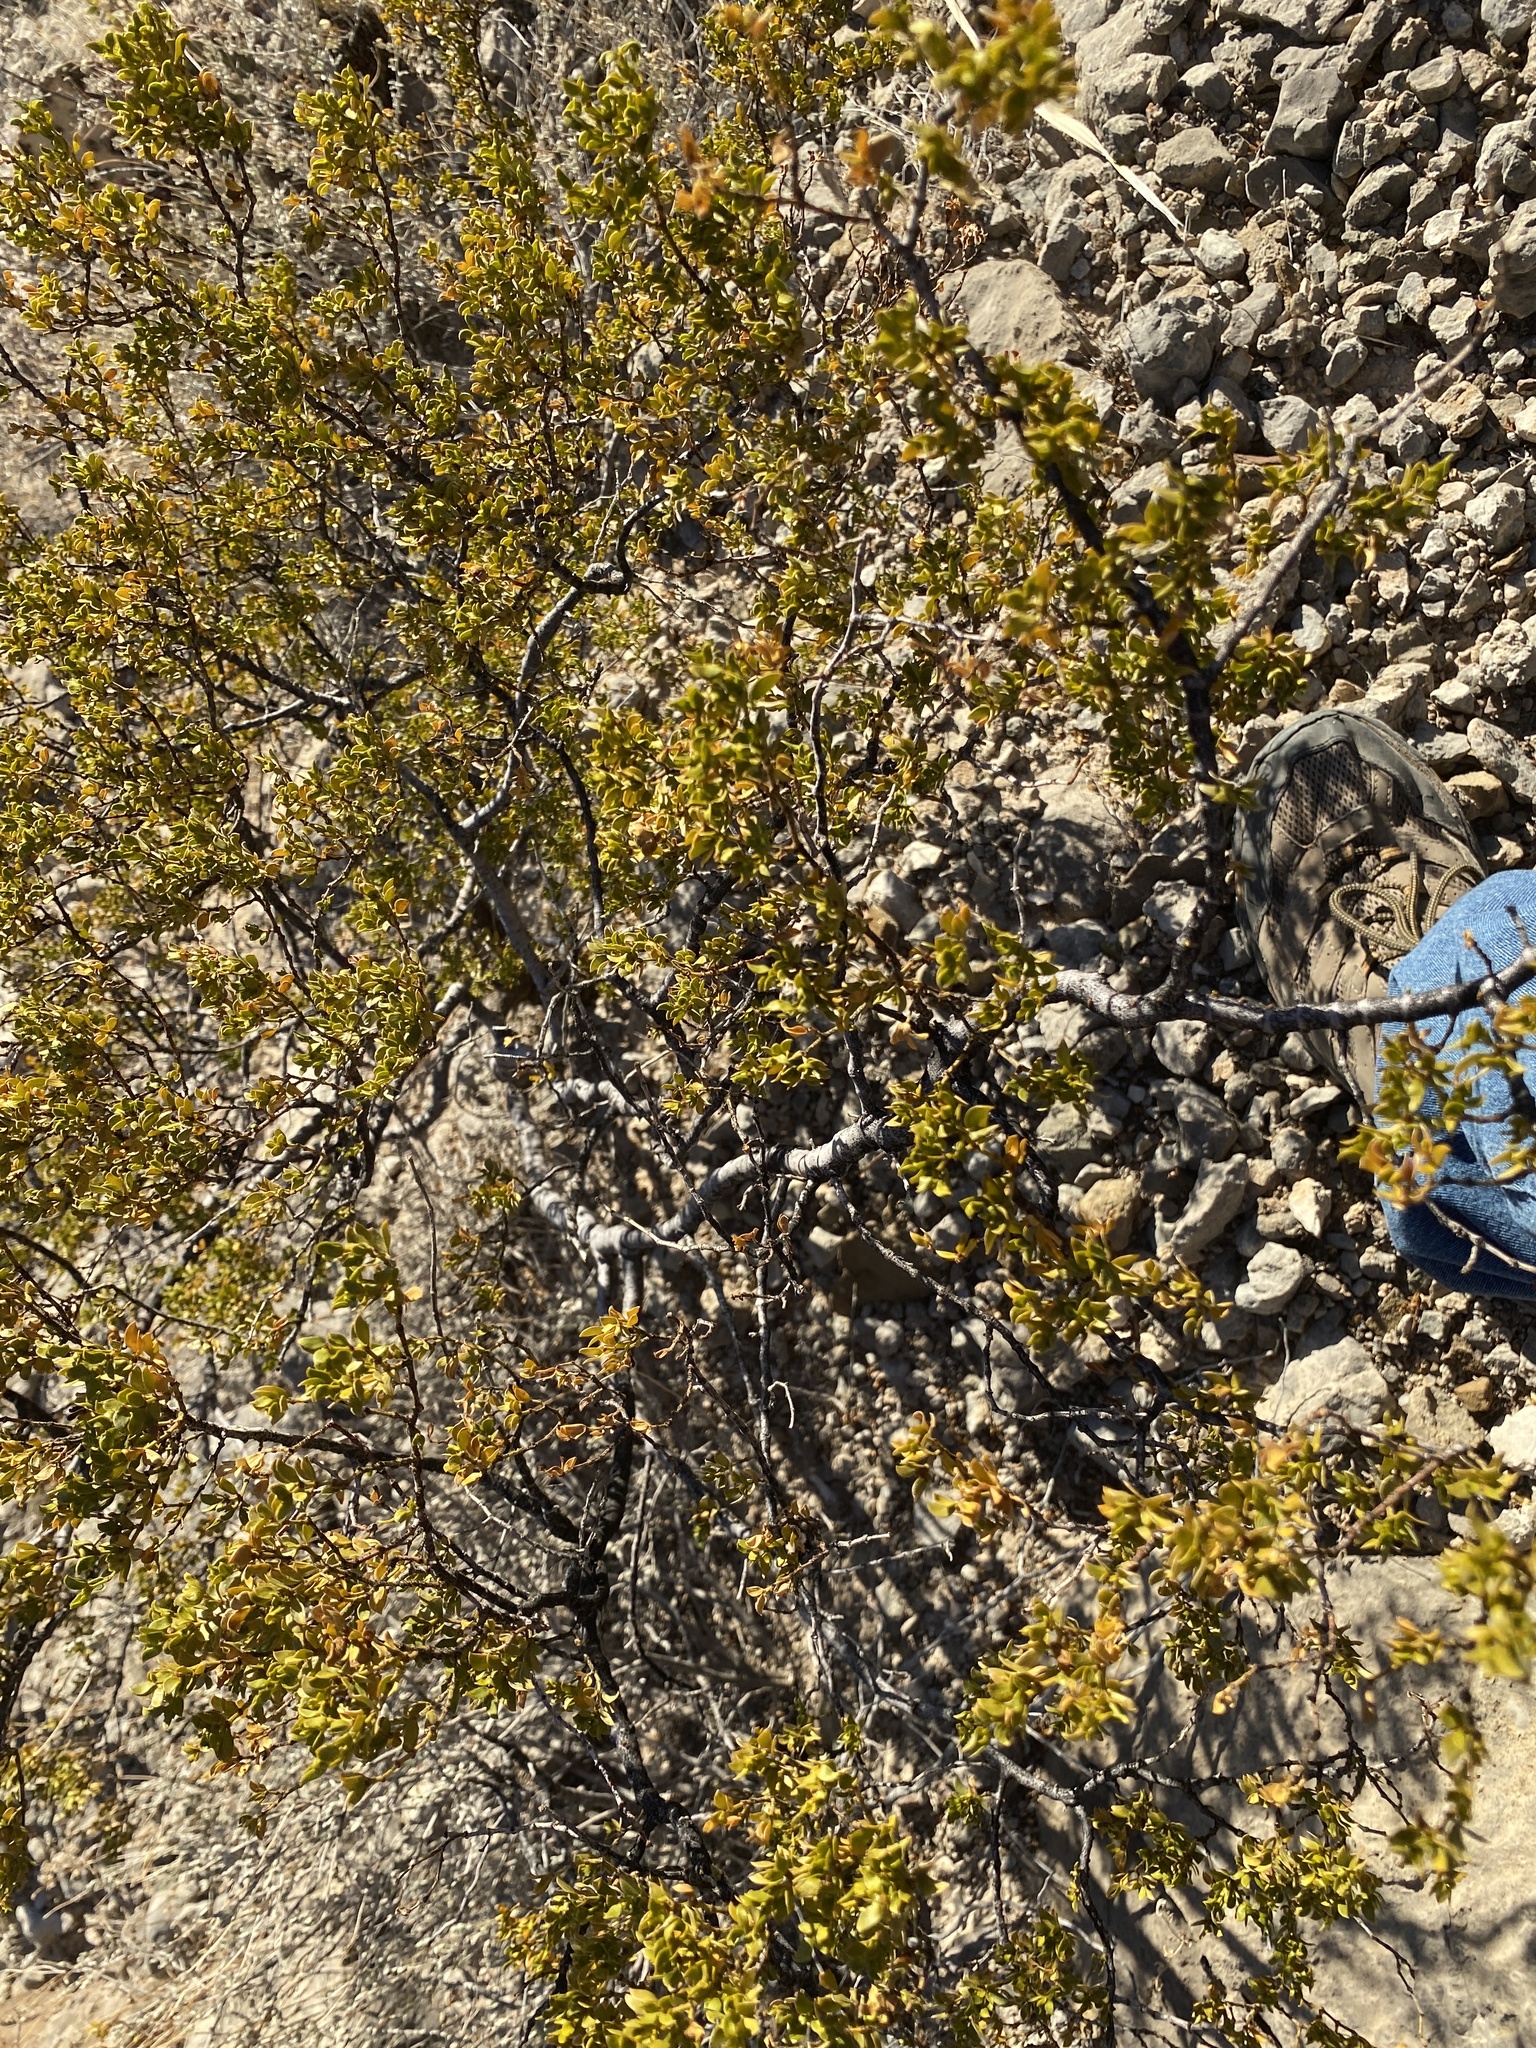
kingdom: Plantae
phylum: Tracheophyta
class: Magnoliopsida
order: Zygophyllales
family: Zygophyllaceae
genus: Larrea
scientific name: Larrea tridentata
